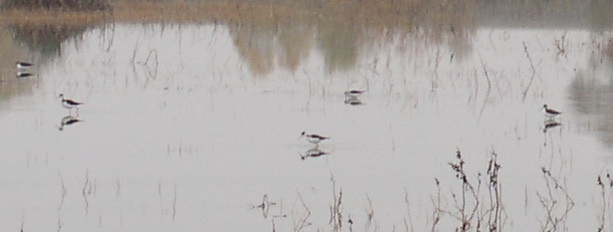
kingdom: Animalia
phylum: Chordata
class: Aves
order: Charadriiformes
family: Recurvirostridae
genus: Himantopus
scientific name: Himantopus mexicanus
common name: Black-necked stilt
